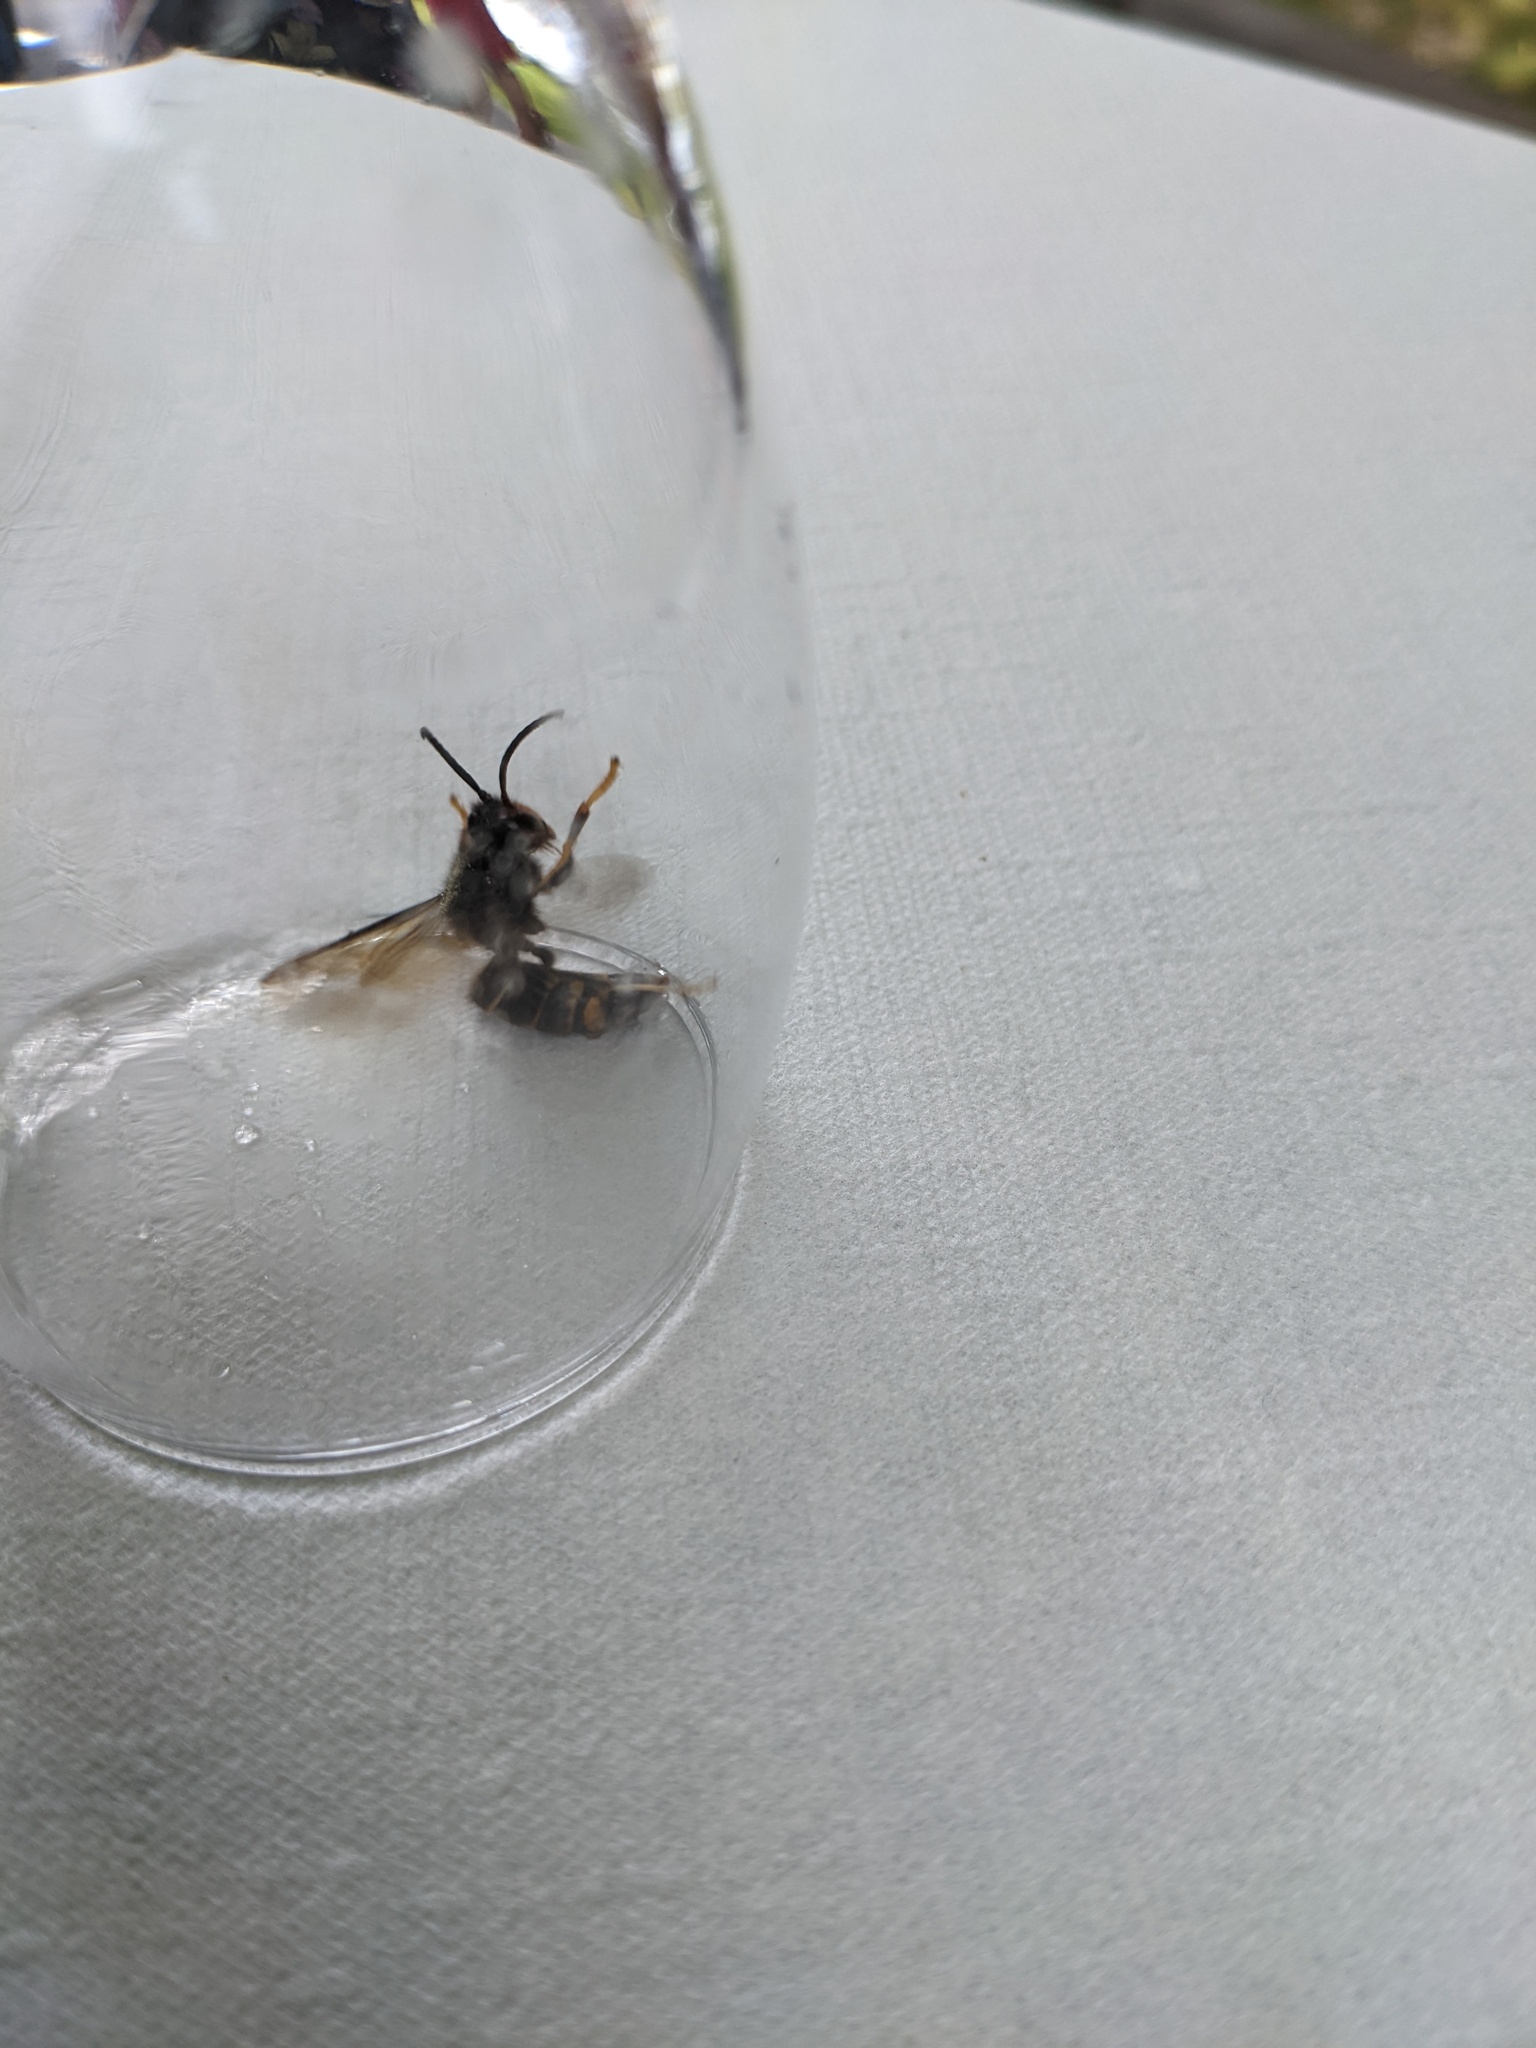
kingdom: Animalia
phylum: Arthropoda
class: Insecta
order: Hymenoptera
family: Vespidae
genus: Vespa
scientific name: Vespa velutina
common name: Asian hornet
